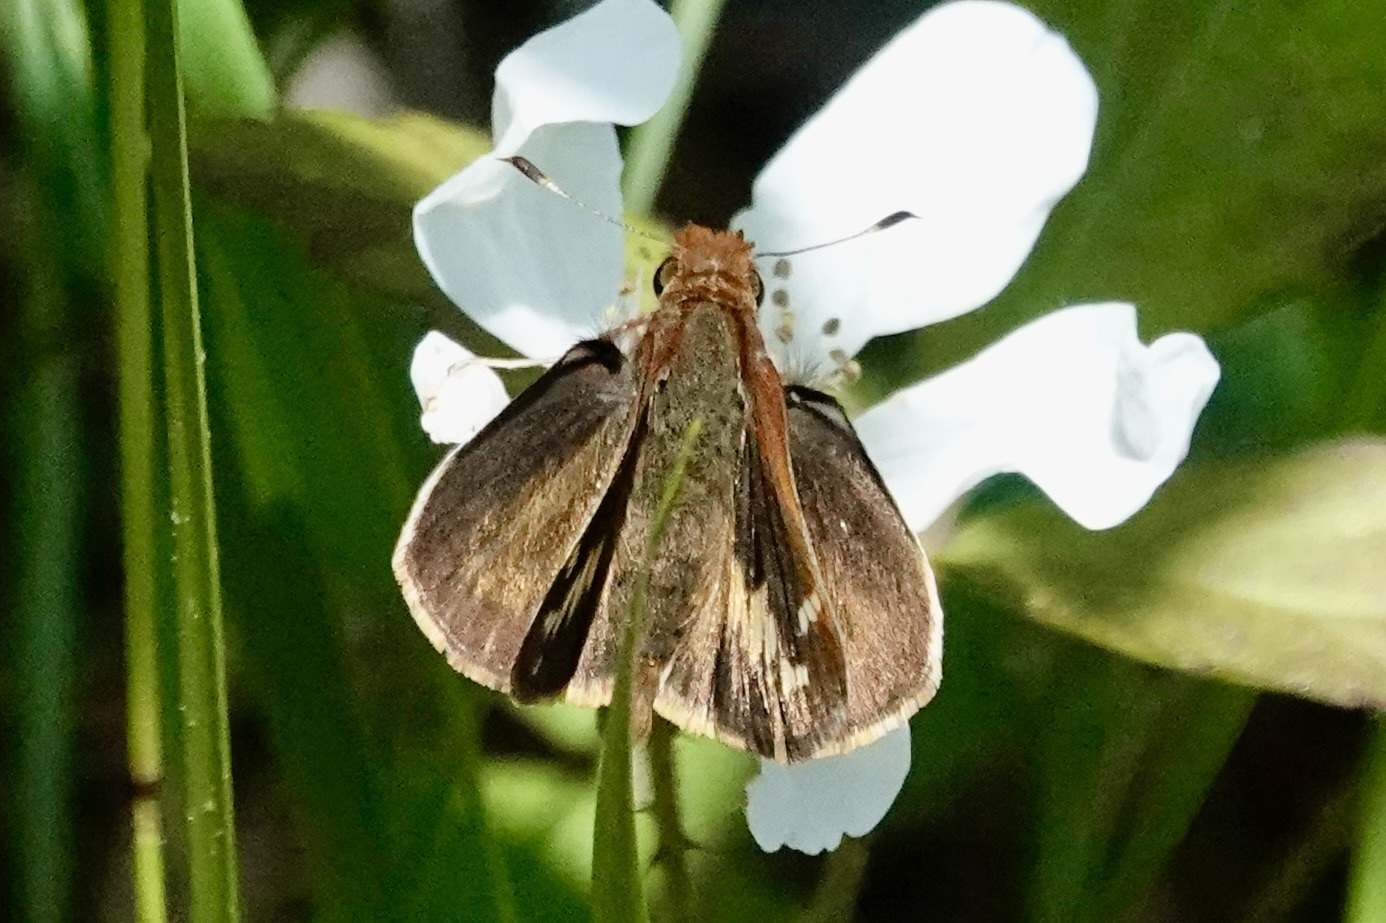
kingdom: Animalia
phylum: Arthropoda
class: Insecta
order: Lepidoptera
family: Hesperiidae
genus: Lon
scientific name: Lon zabulon
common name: Zabulon skipper
